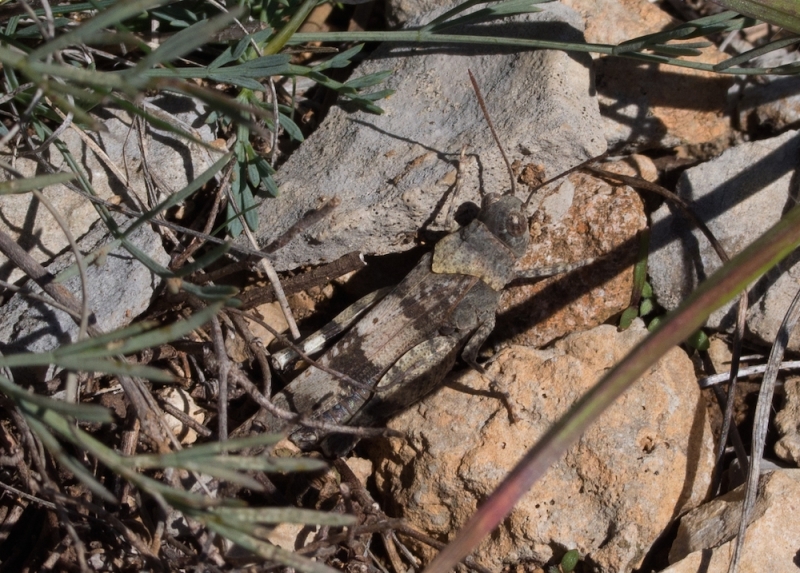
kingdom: Animalia
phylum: Arthropoda
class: Insecta
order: Orthoptera
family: Acrididae
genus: Oedipoda
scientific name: Oedipoda germanica
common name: Red band-winged grasshopper
